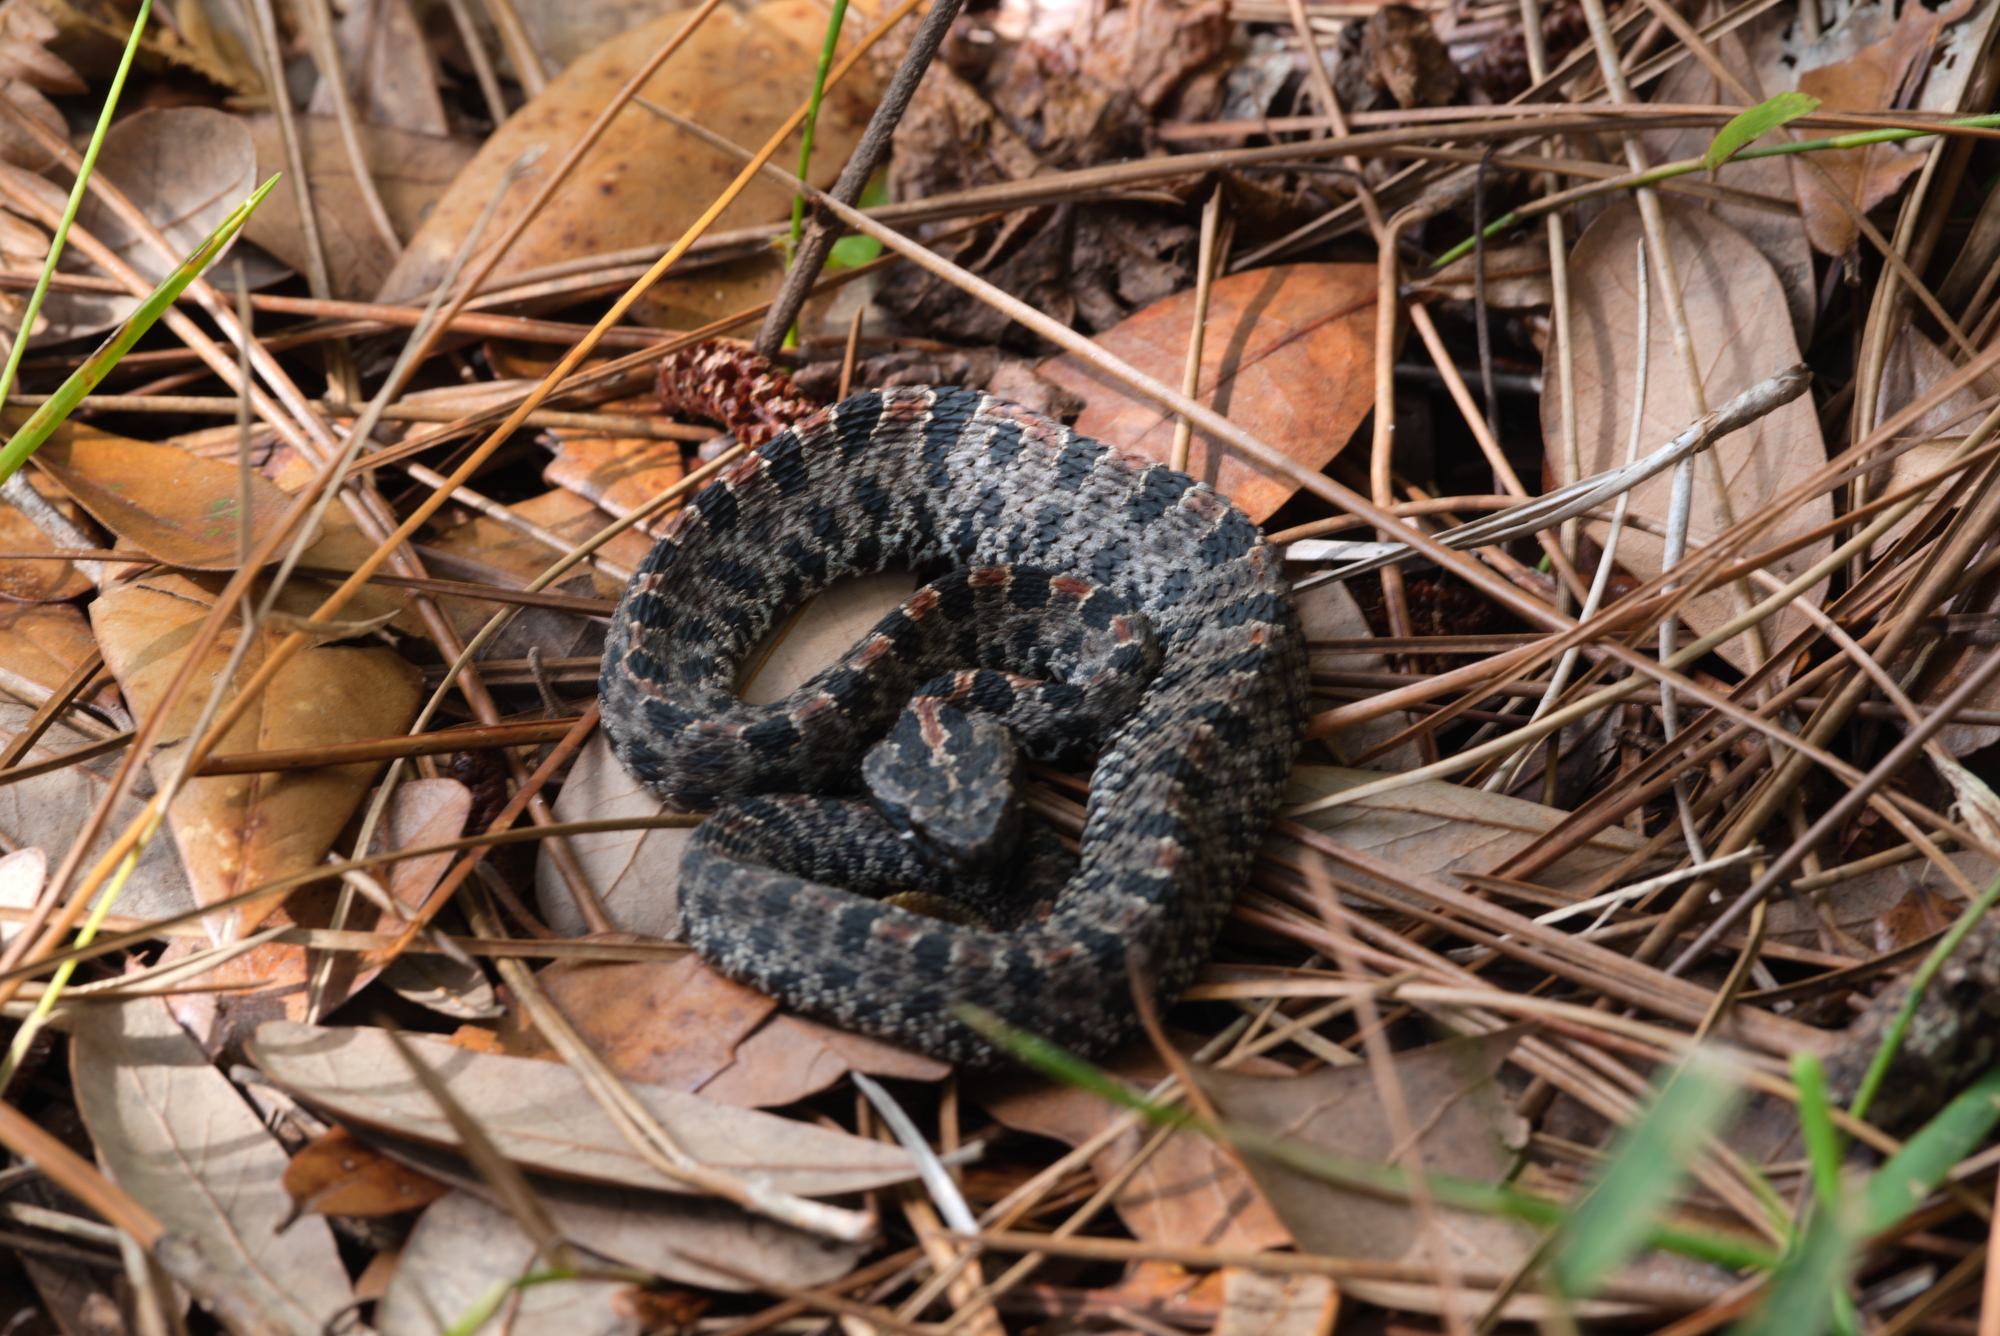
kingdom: Animalia
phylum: Chordata
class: Squamata
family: Viperidae
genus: Sistrurus
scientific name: Sistrurus miliarius
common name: Pygmy rattlesnake
